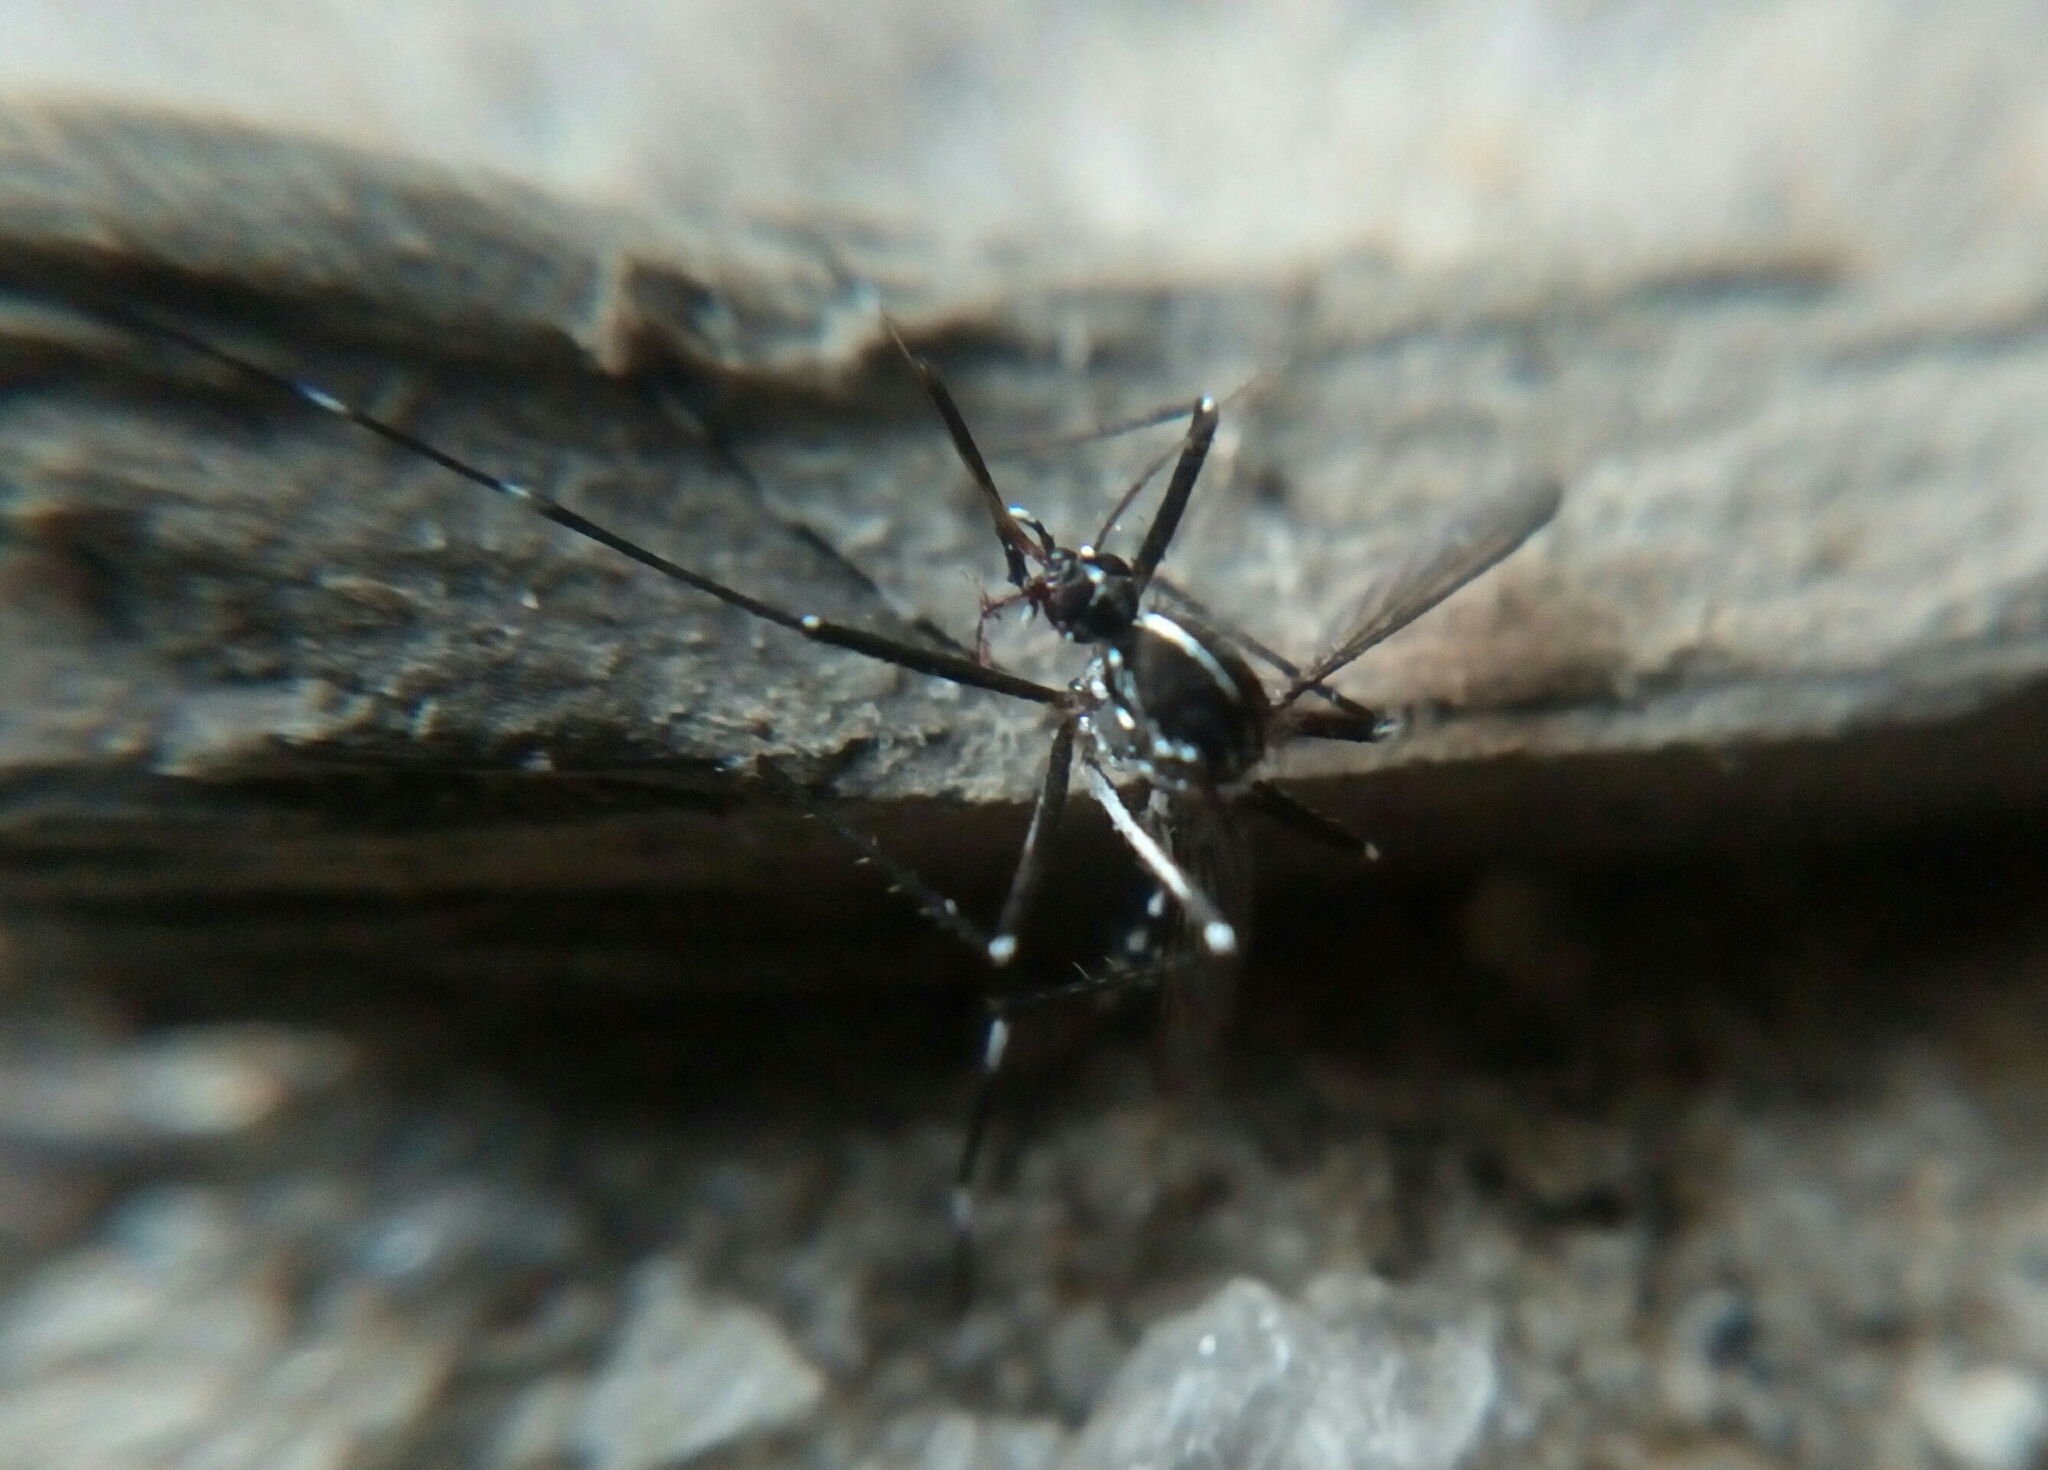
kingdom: Animalia
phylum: Arthropoda
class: Insecta
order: Diptera
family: Culicidae
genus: Aedes
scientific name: Aedes albopictus
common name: Tiger mosquito
